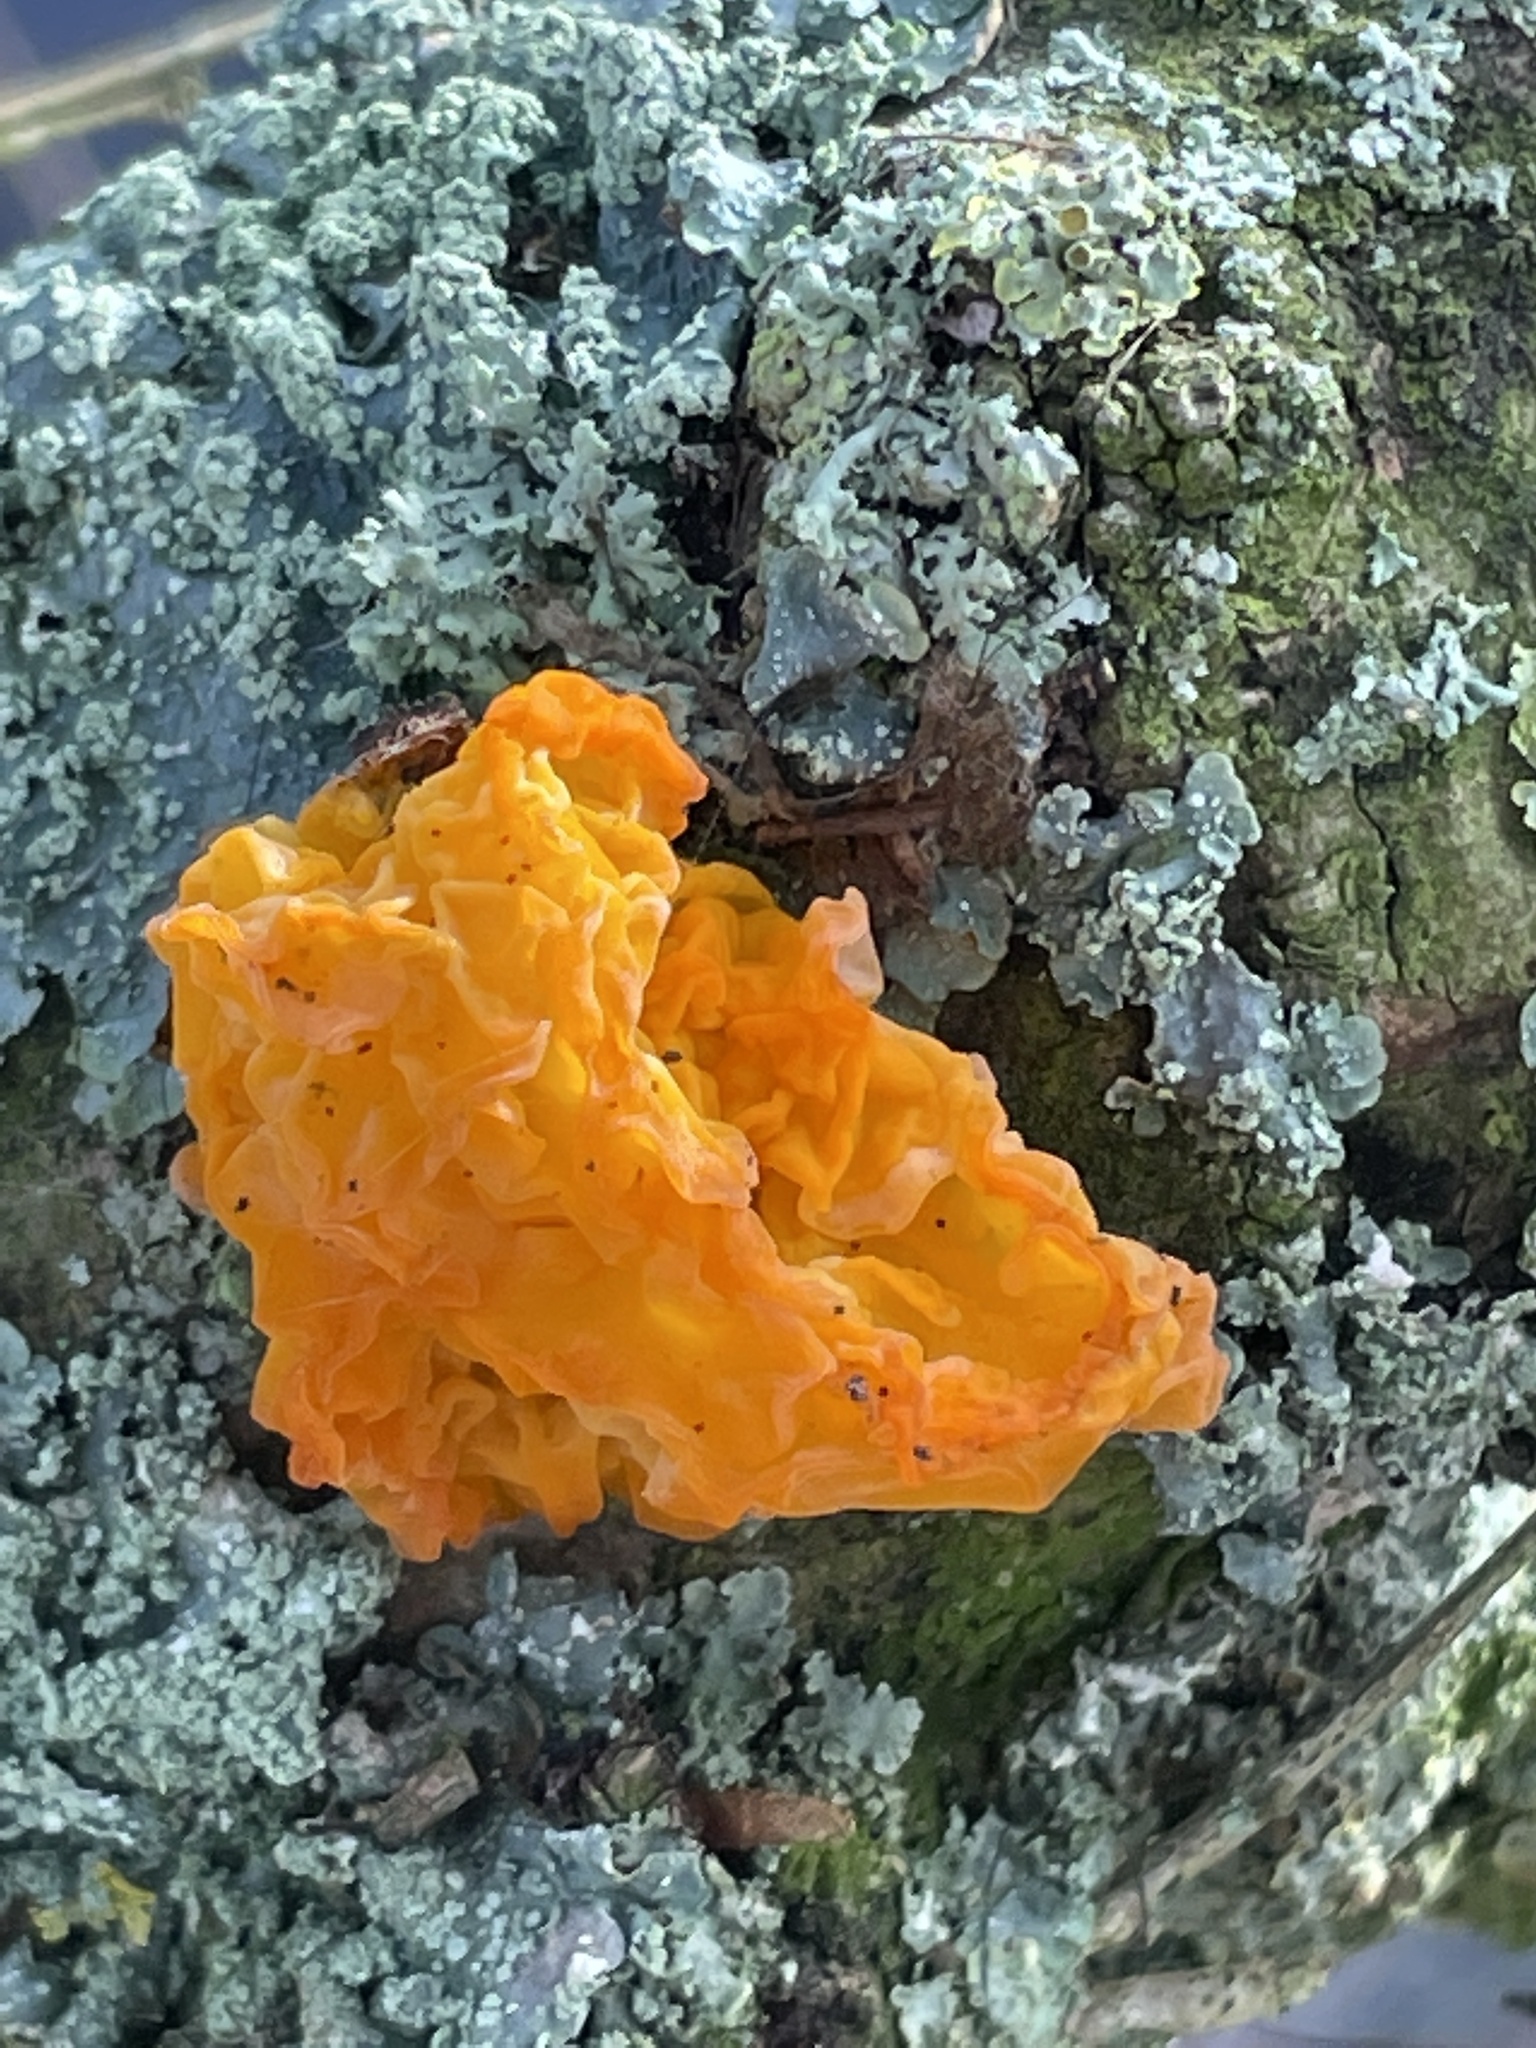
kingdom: Fungi
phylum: Basidiomycota
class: Tremellomycetes
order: Tremellales
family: Tremellaceae
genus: Tremella
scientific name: Tremella mesenterica
